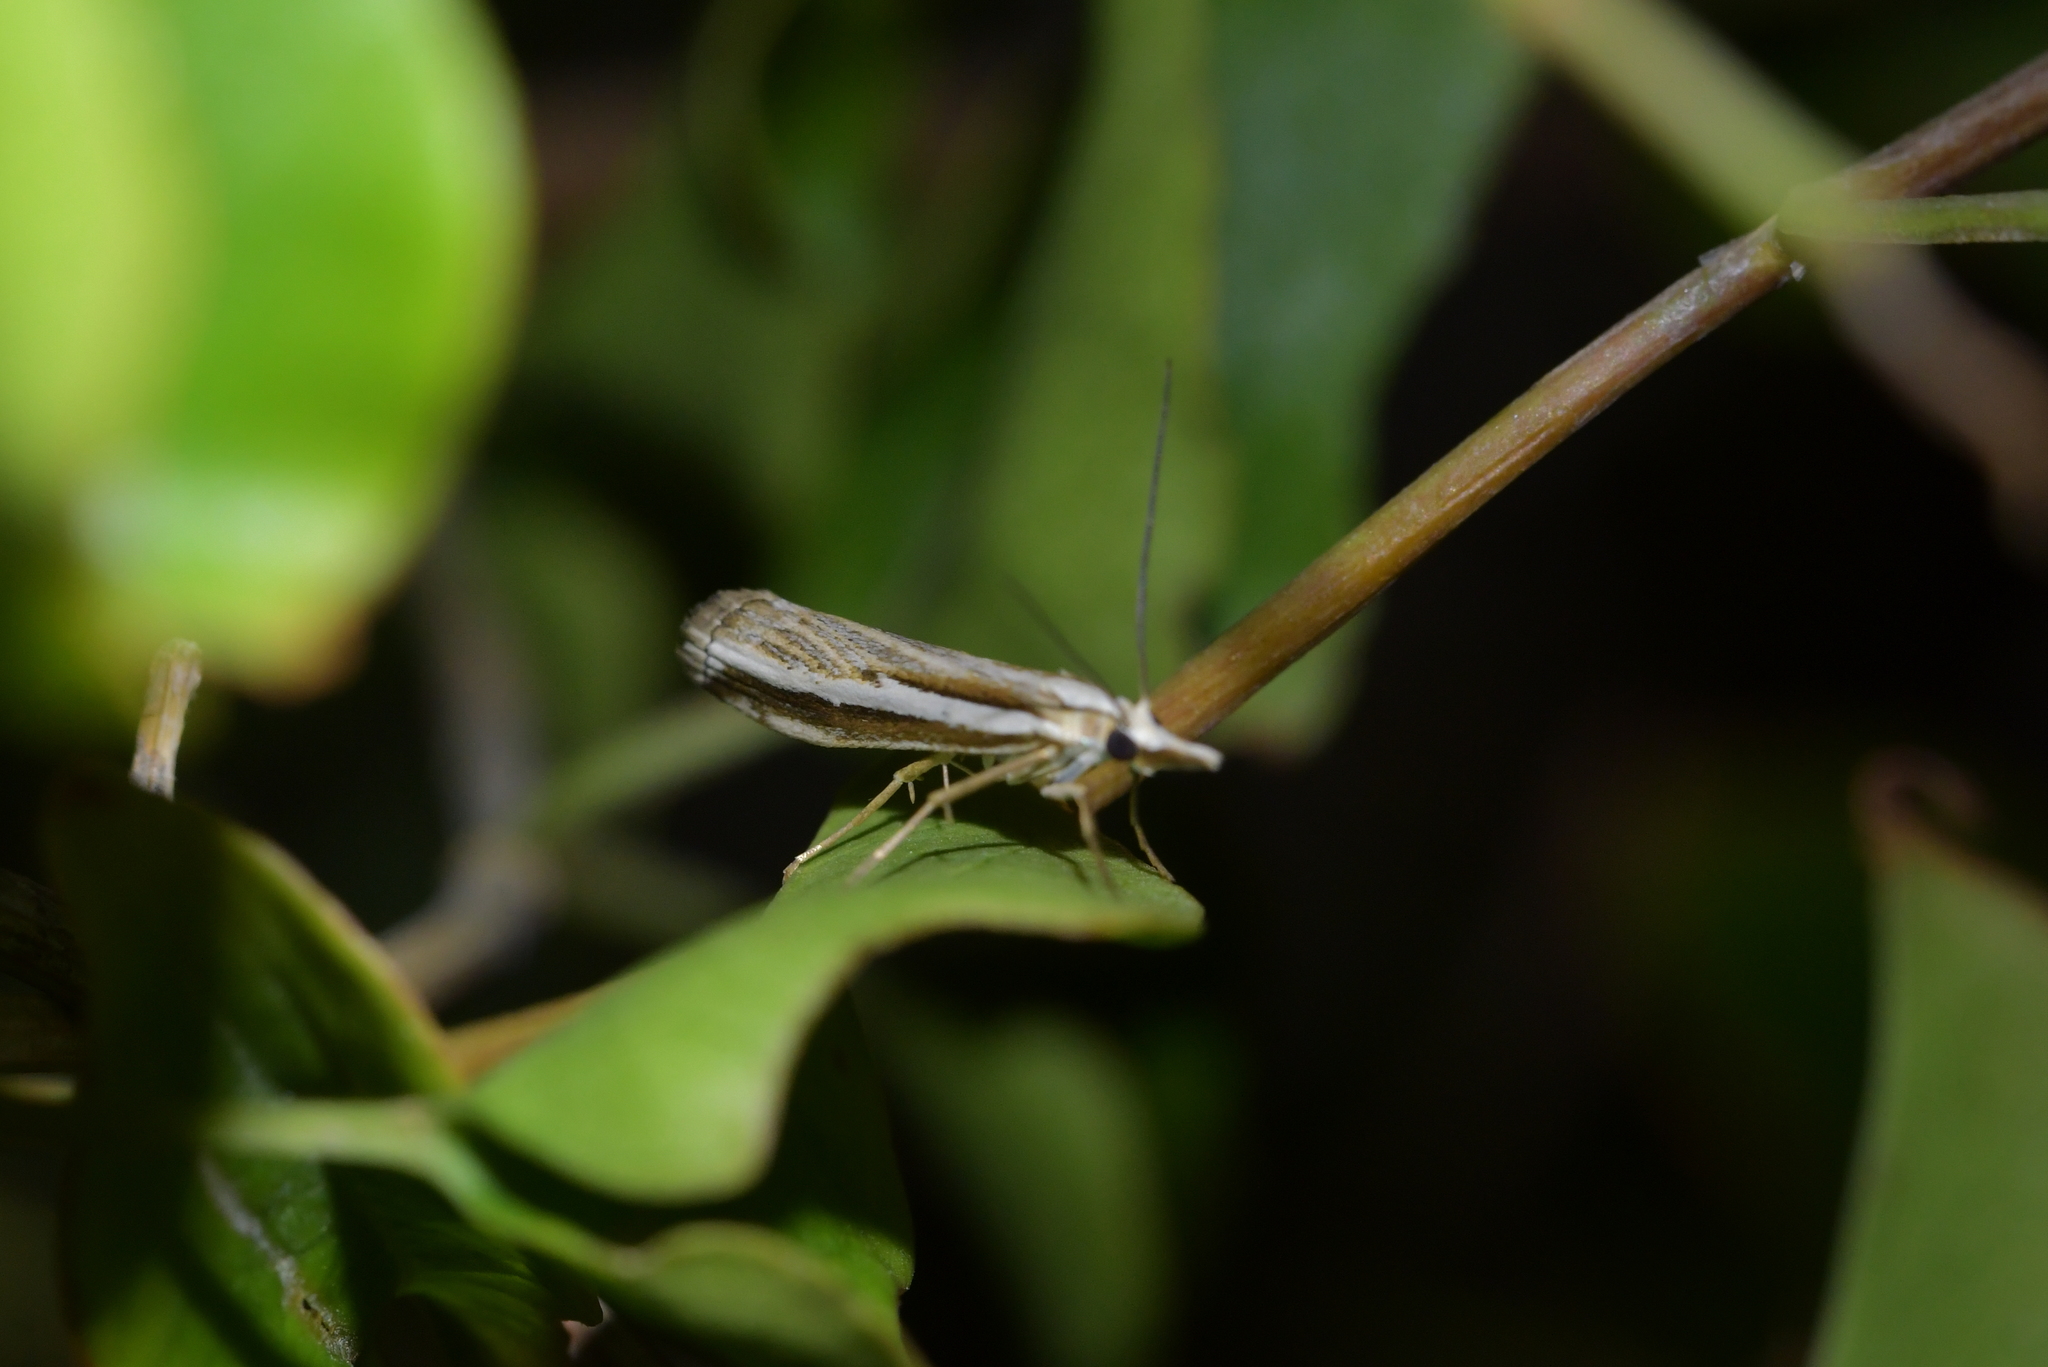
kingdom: Animalia
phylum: Arthropoda
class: Insecta
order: Lepidoptera
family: Crambidae
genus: Orocrambus
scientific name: Orocrambus vittellus
